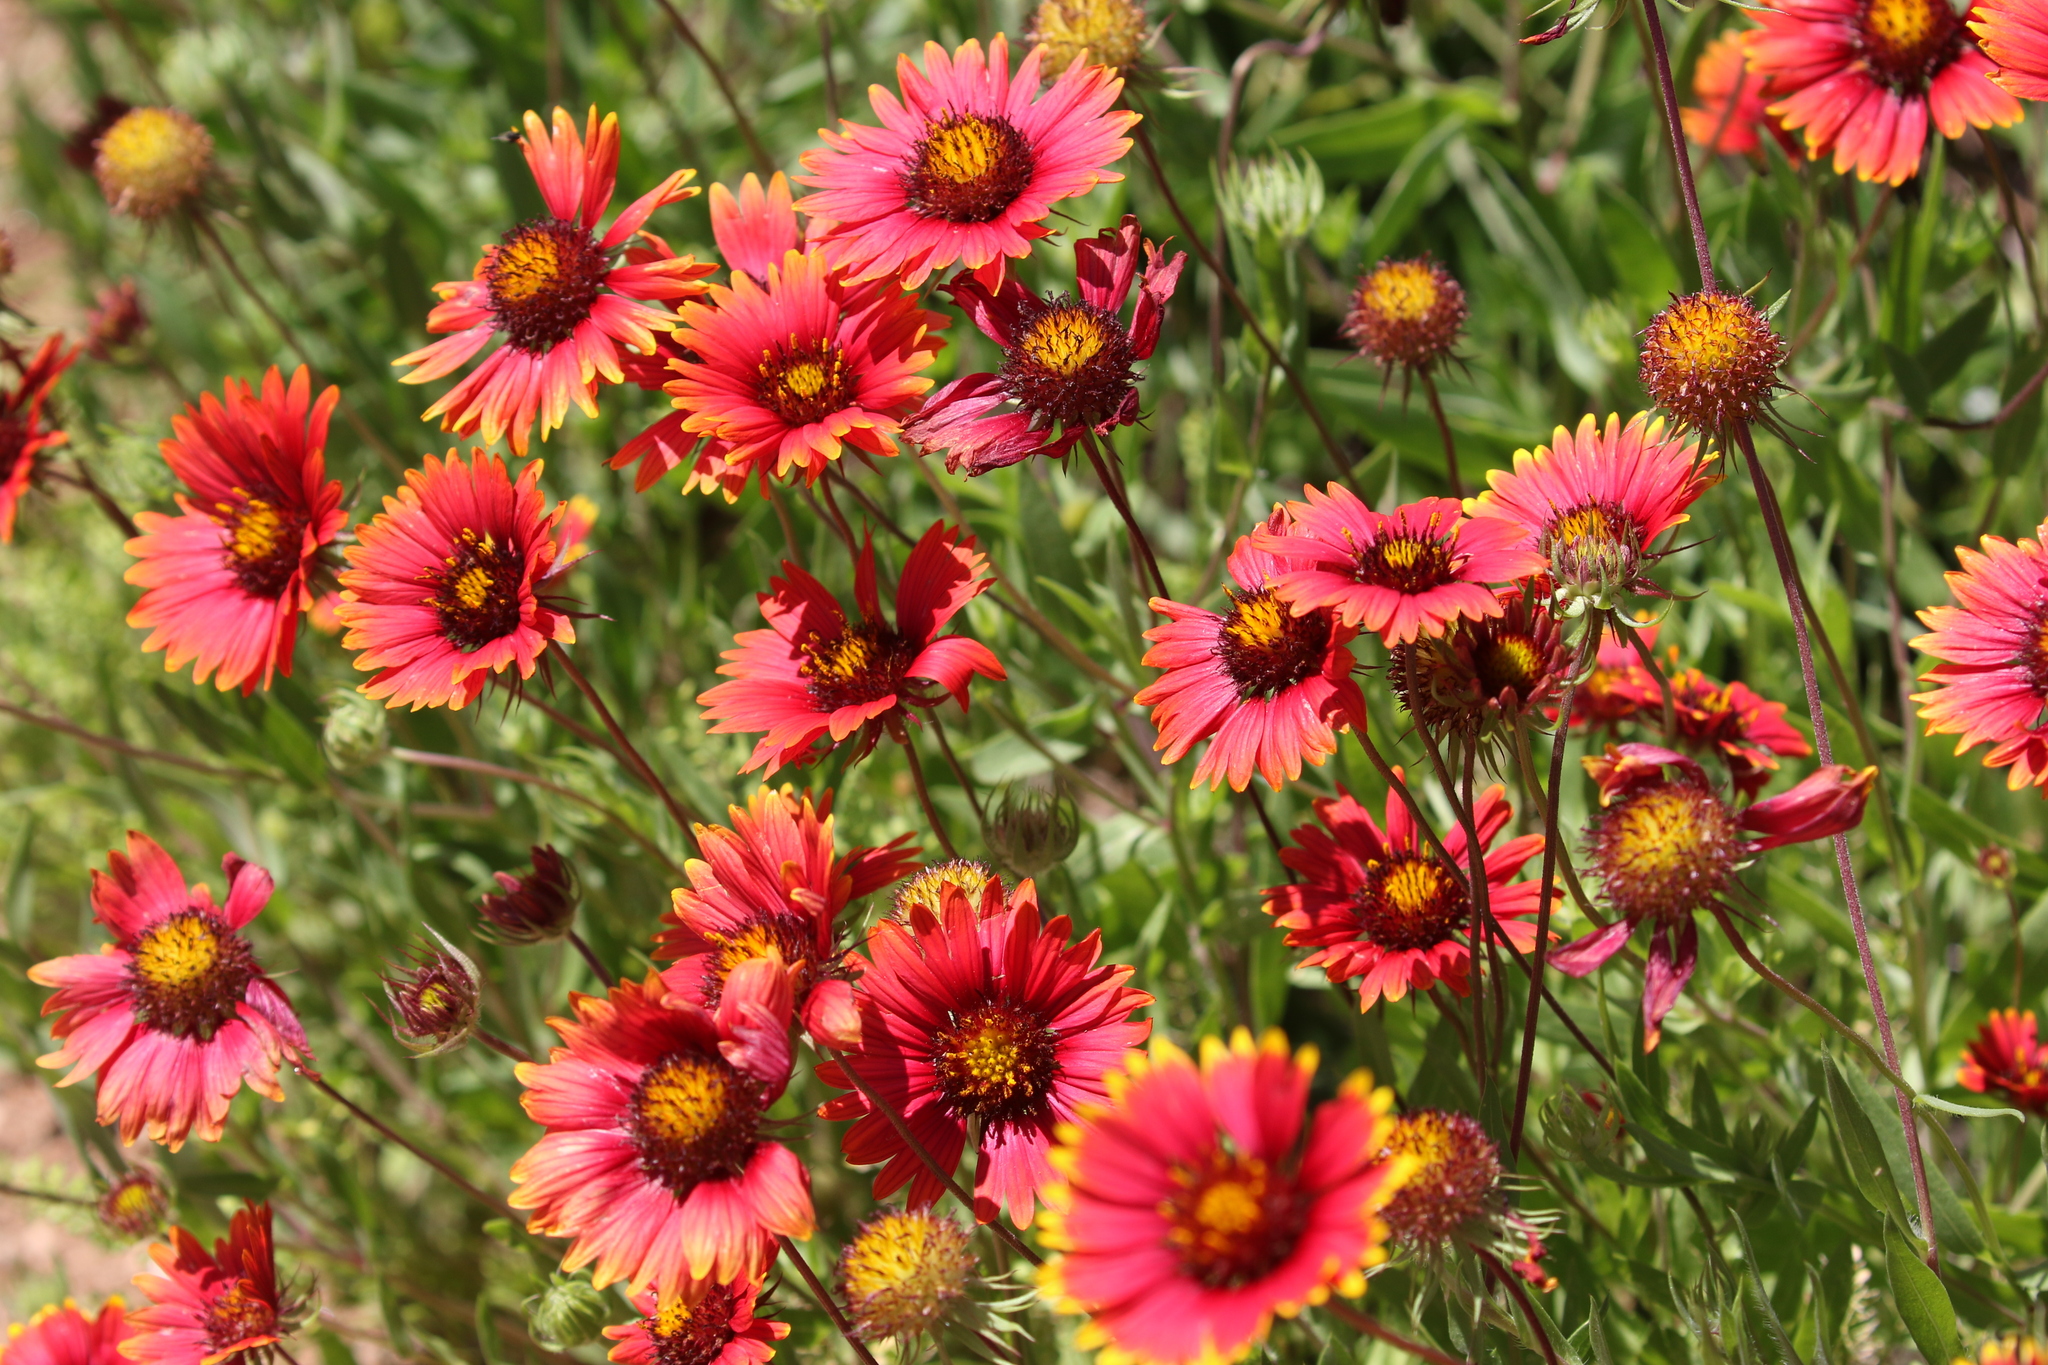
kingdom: Plantae
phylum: Tracheophyta
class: Magnoliopsida
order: Asterales
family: Asteraceae
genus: Gaillardia
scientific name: Gaillardia pulchella
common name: Firewheel
